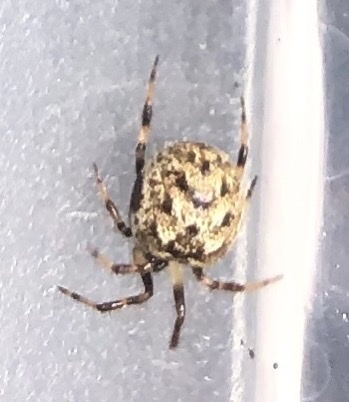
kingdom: Animalia
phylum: Arthropoda
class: Arachnida
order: Araneae
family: Theridiidae
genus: Dipoena
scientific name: Dipoena melanogaster
